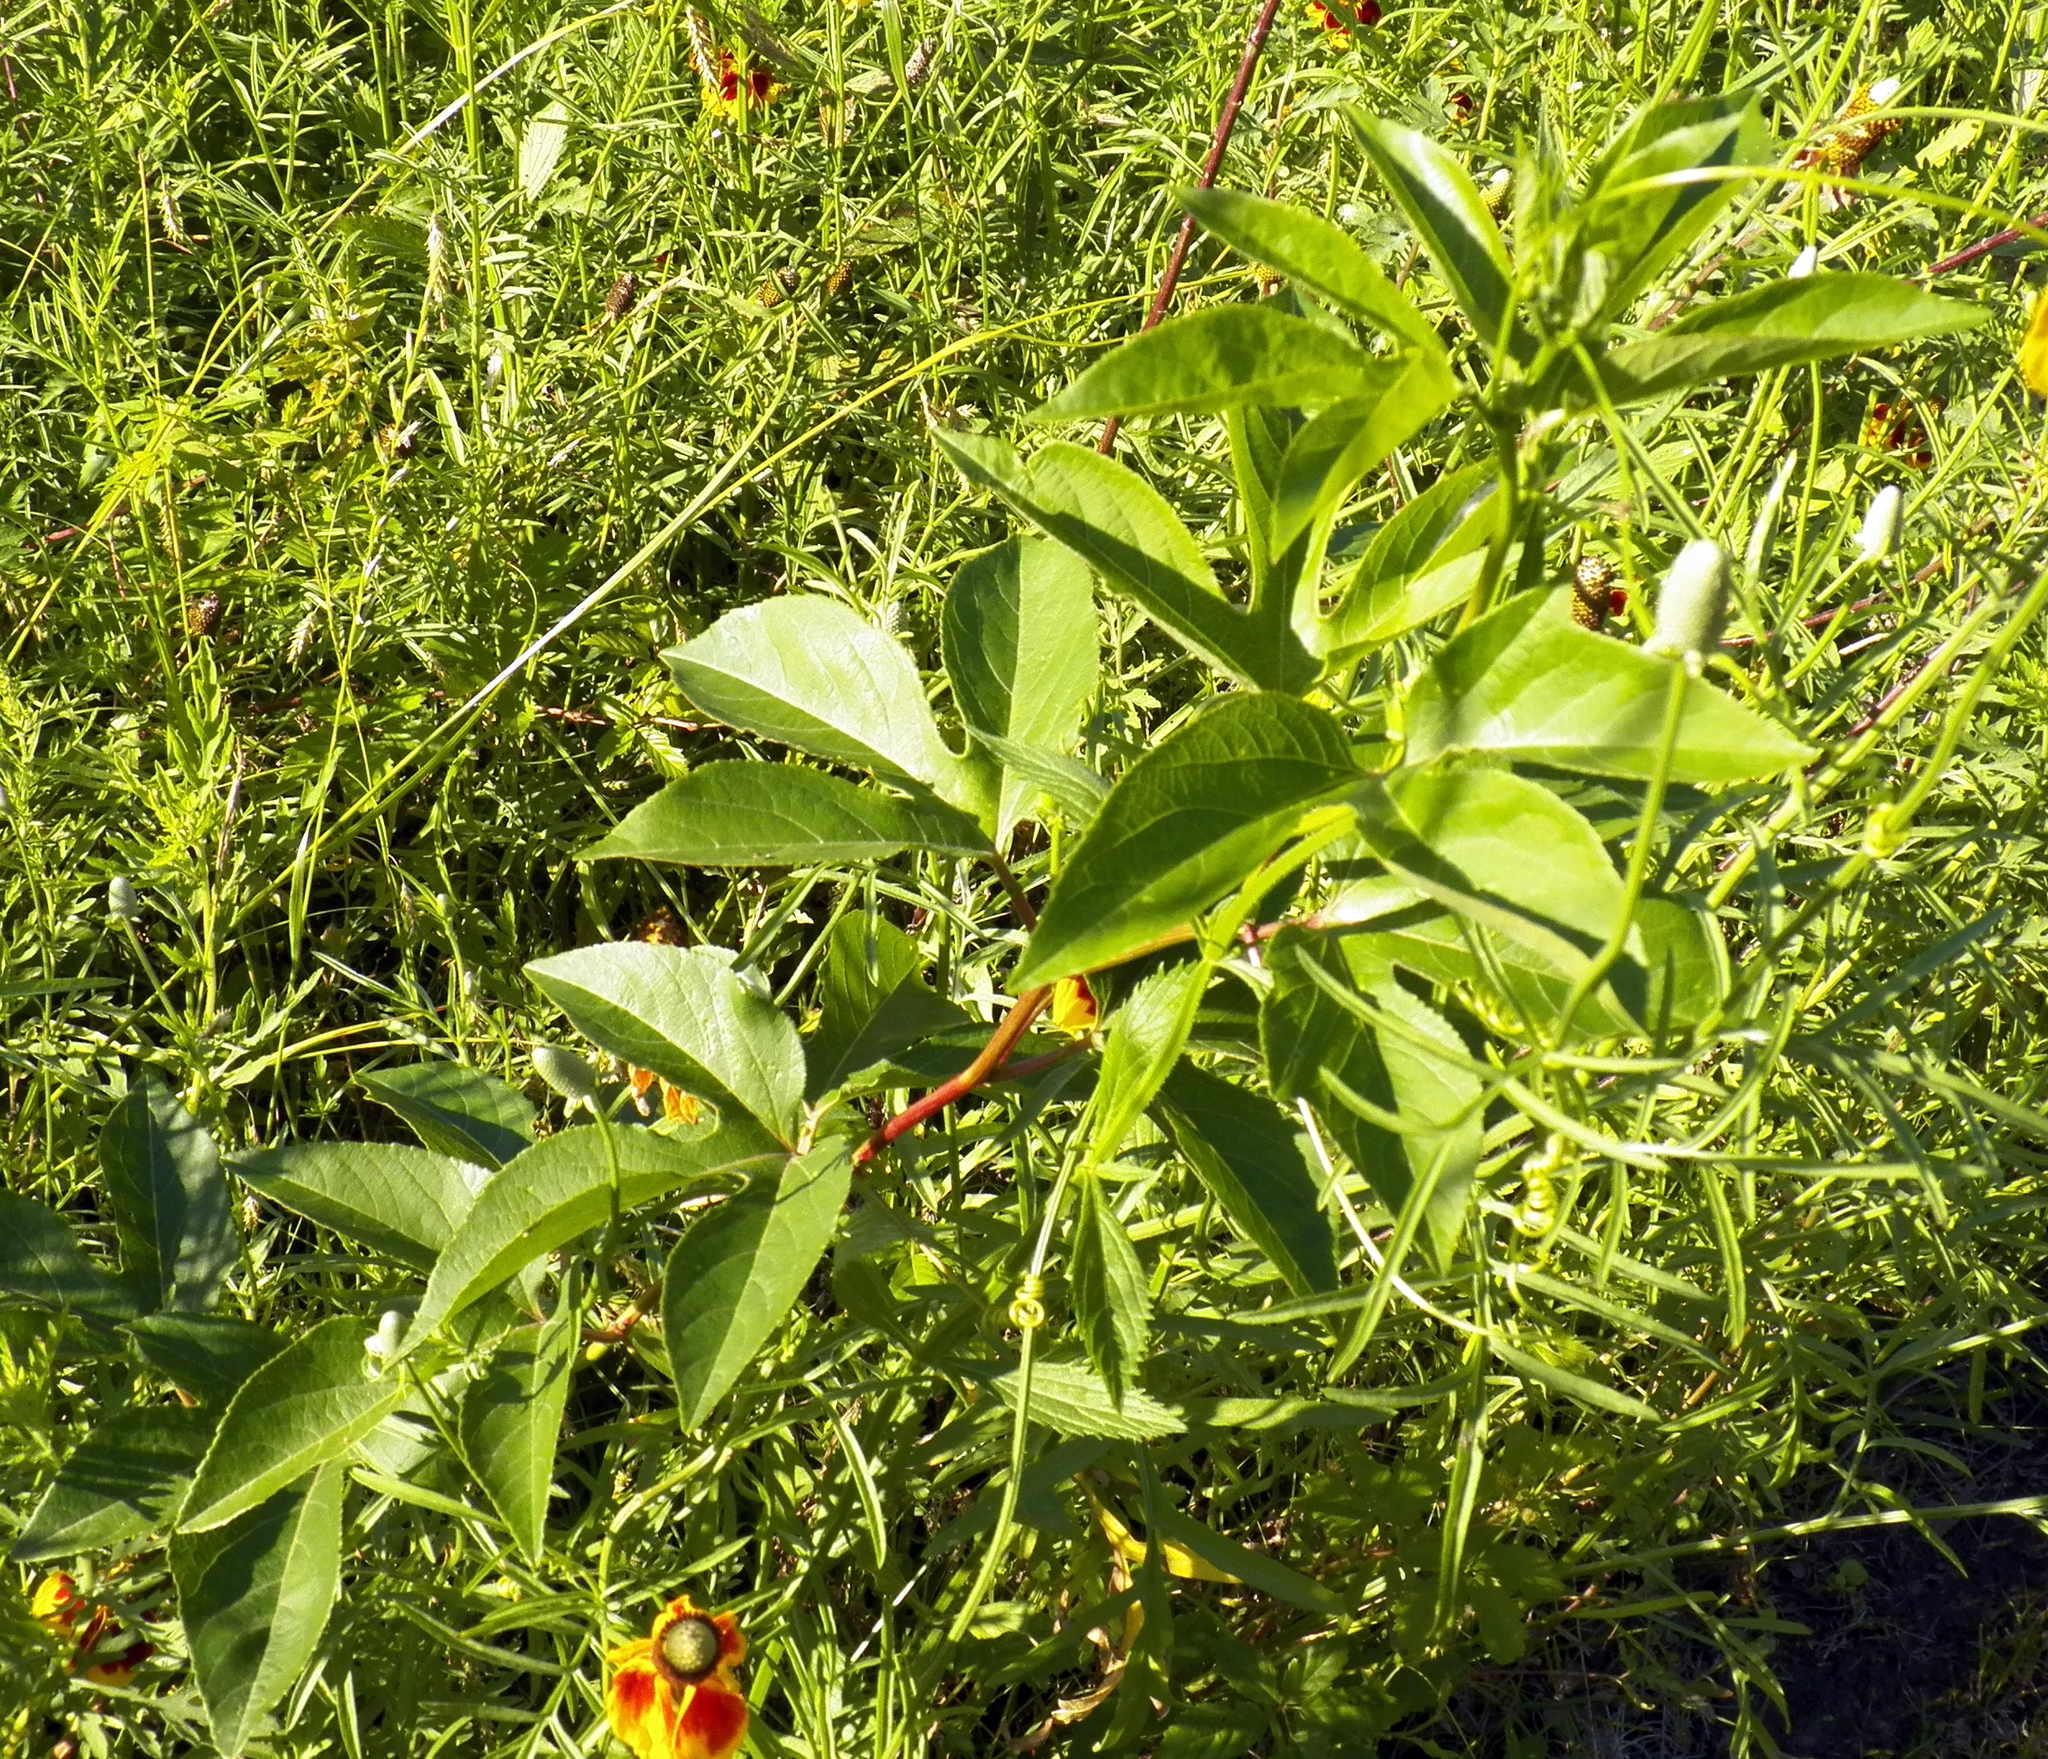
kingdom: Plantae
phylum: Tracheophyta
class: Magnoliopsida
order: Malpighiales
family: Passifloraceae
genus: Passiflora
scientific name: Passiflora incarnata
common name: Apricot-vine
